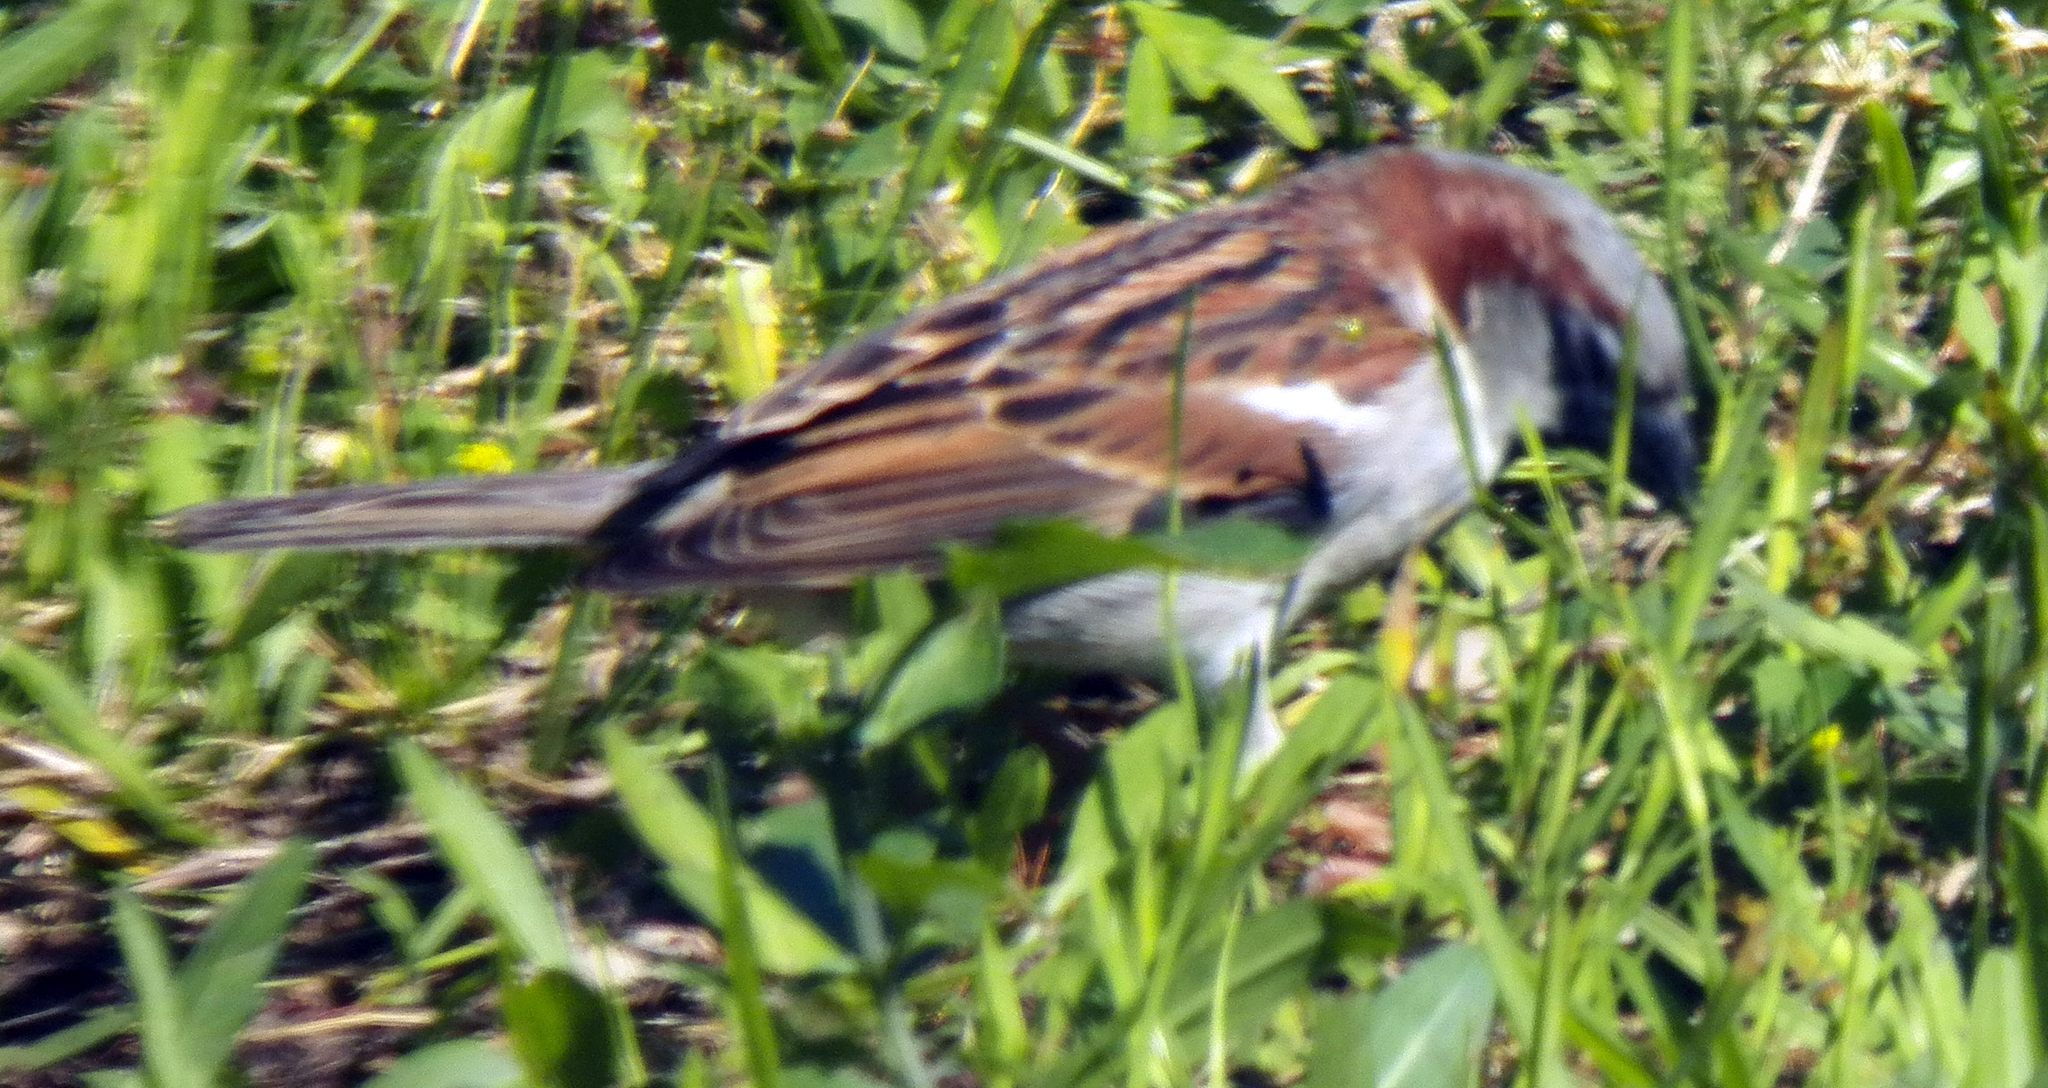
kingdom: Animalia
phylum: Chordata
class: Aves
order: Passeriformes
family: Passeridae
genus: Passer
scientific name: Passer domesticus
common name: House sparrow
